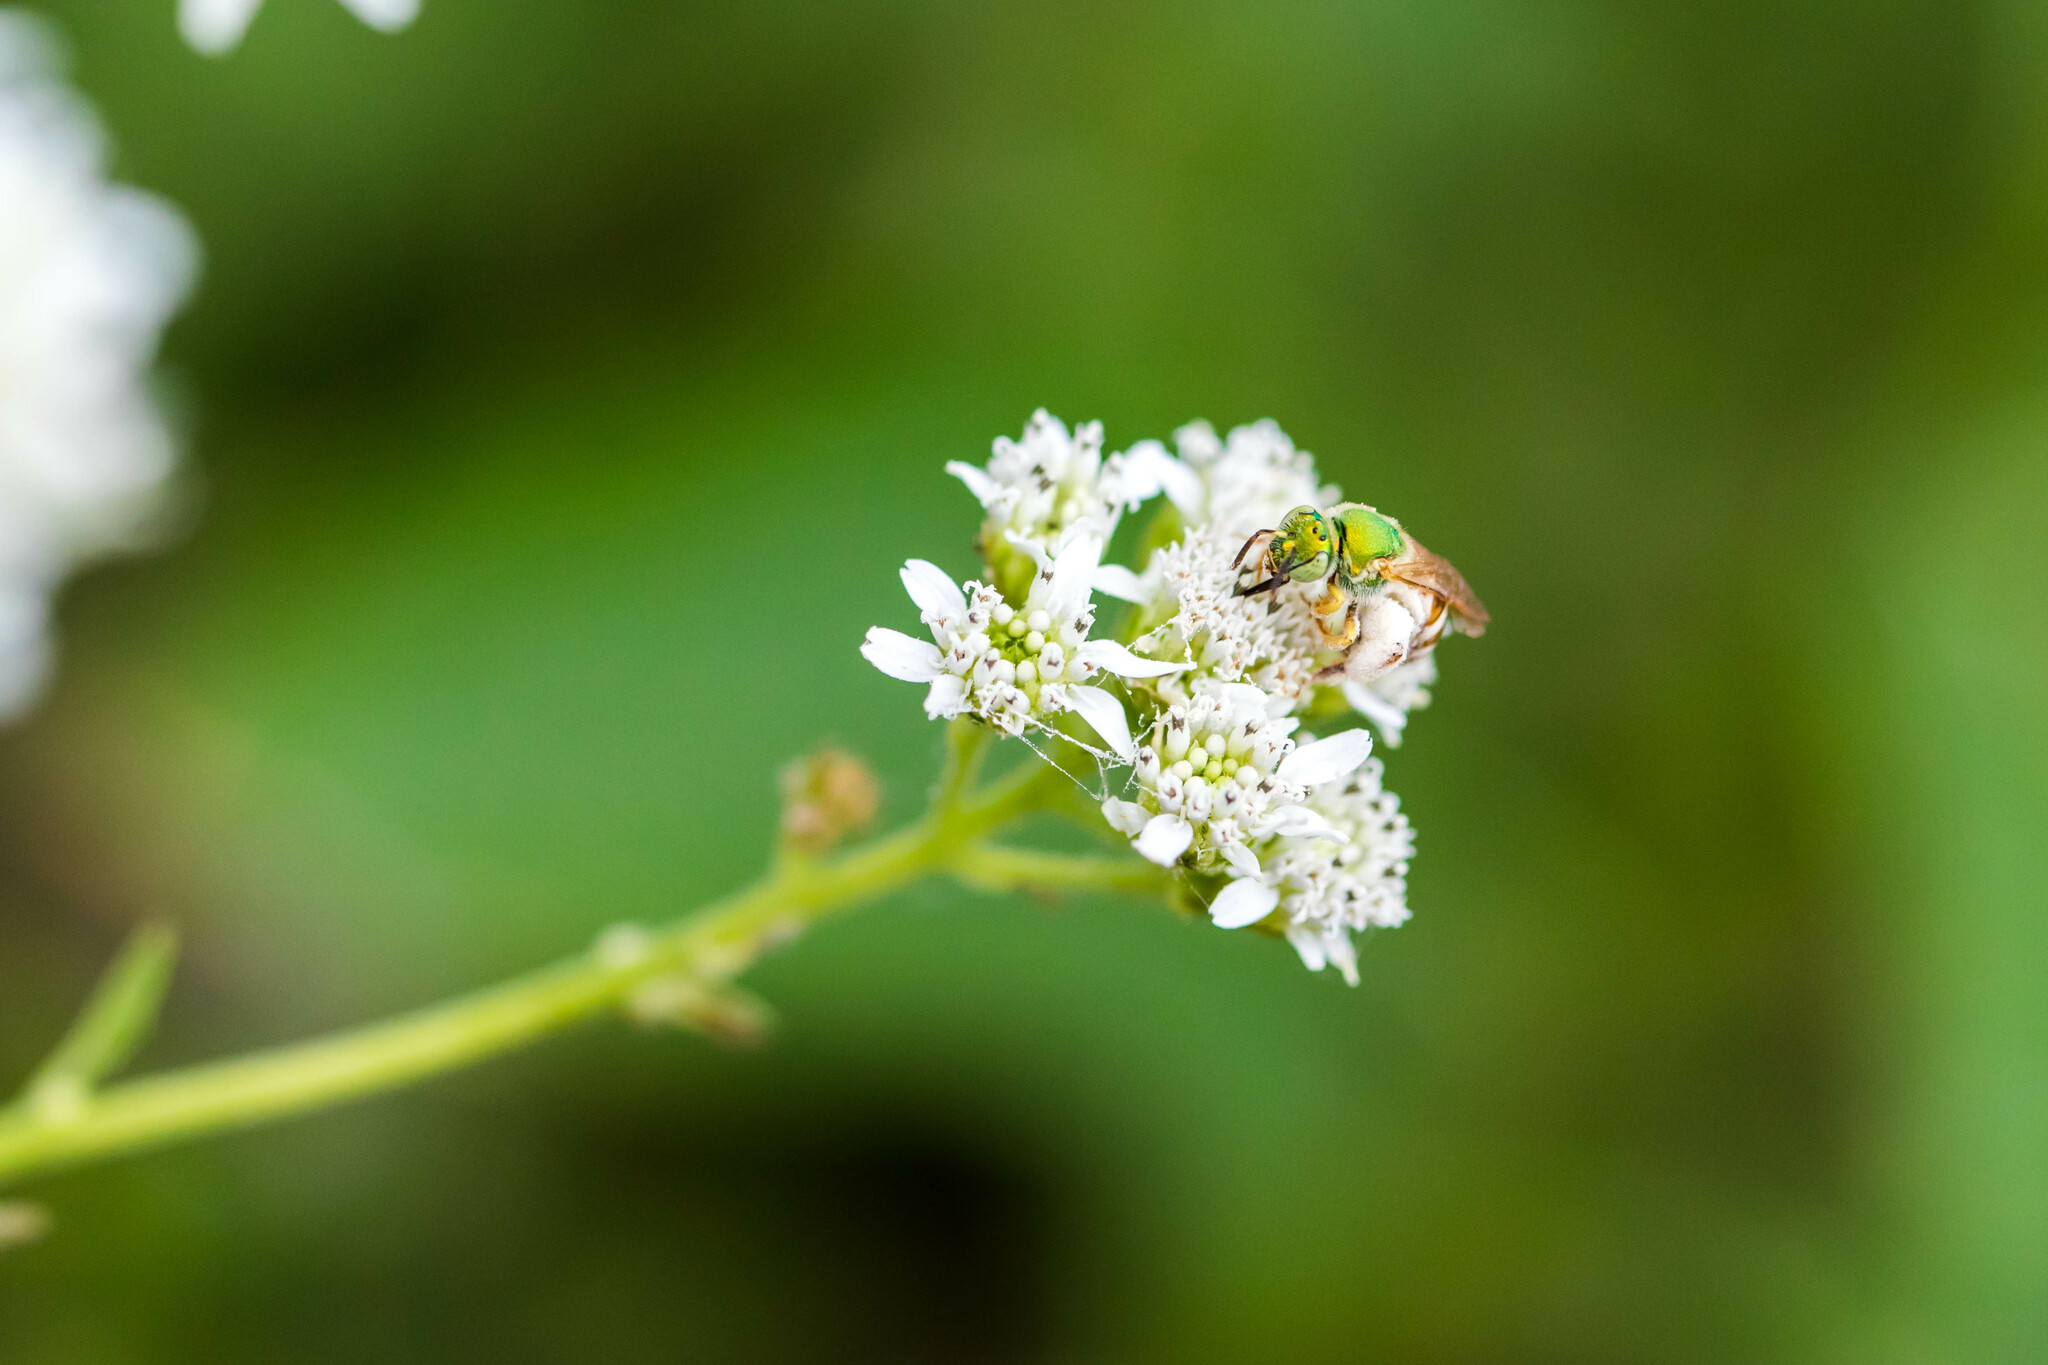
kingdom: Animalia
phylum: Arthropoda
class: Insecta
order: Hymenoptera
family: Halictidae
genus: Agapostemon
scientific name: Agapostemon melliventris
